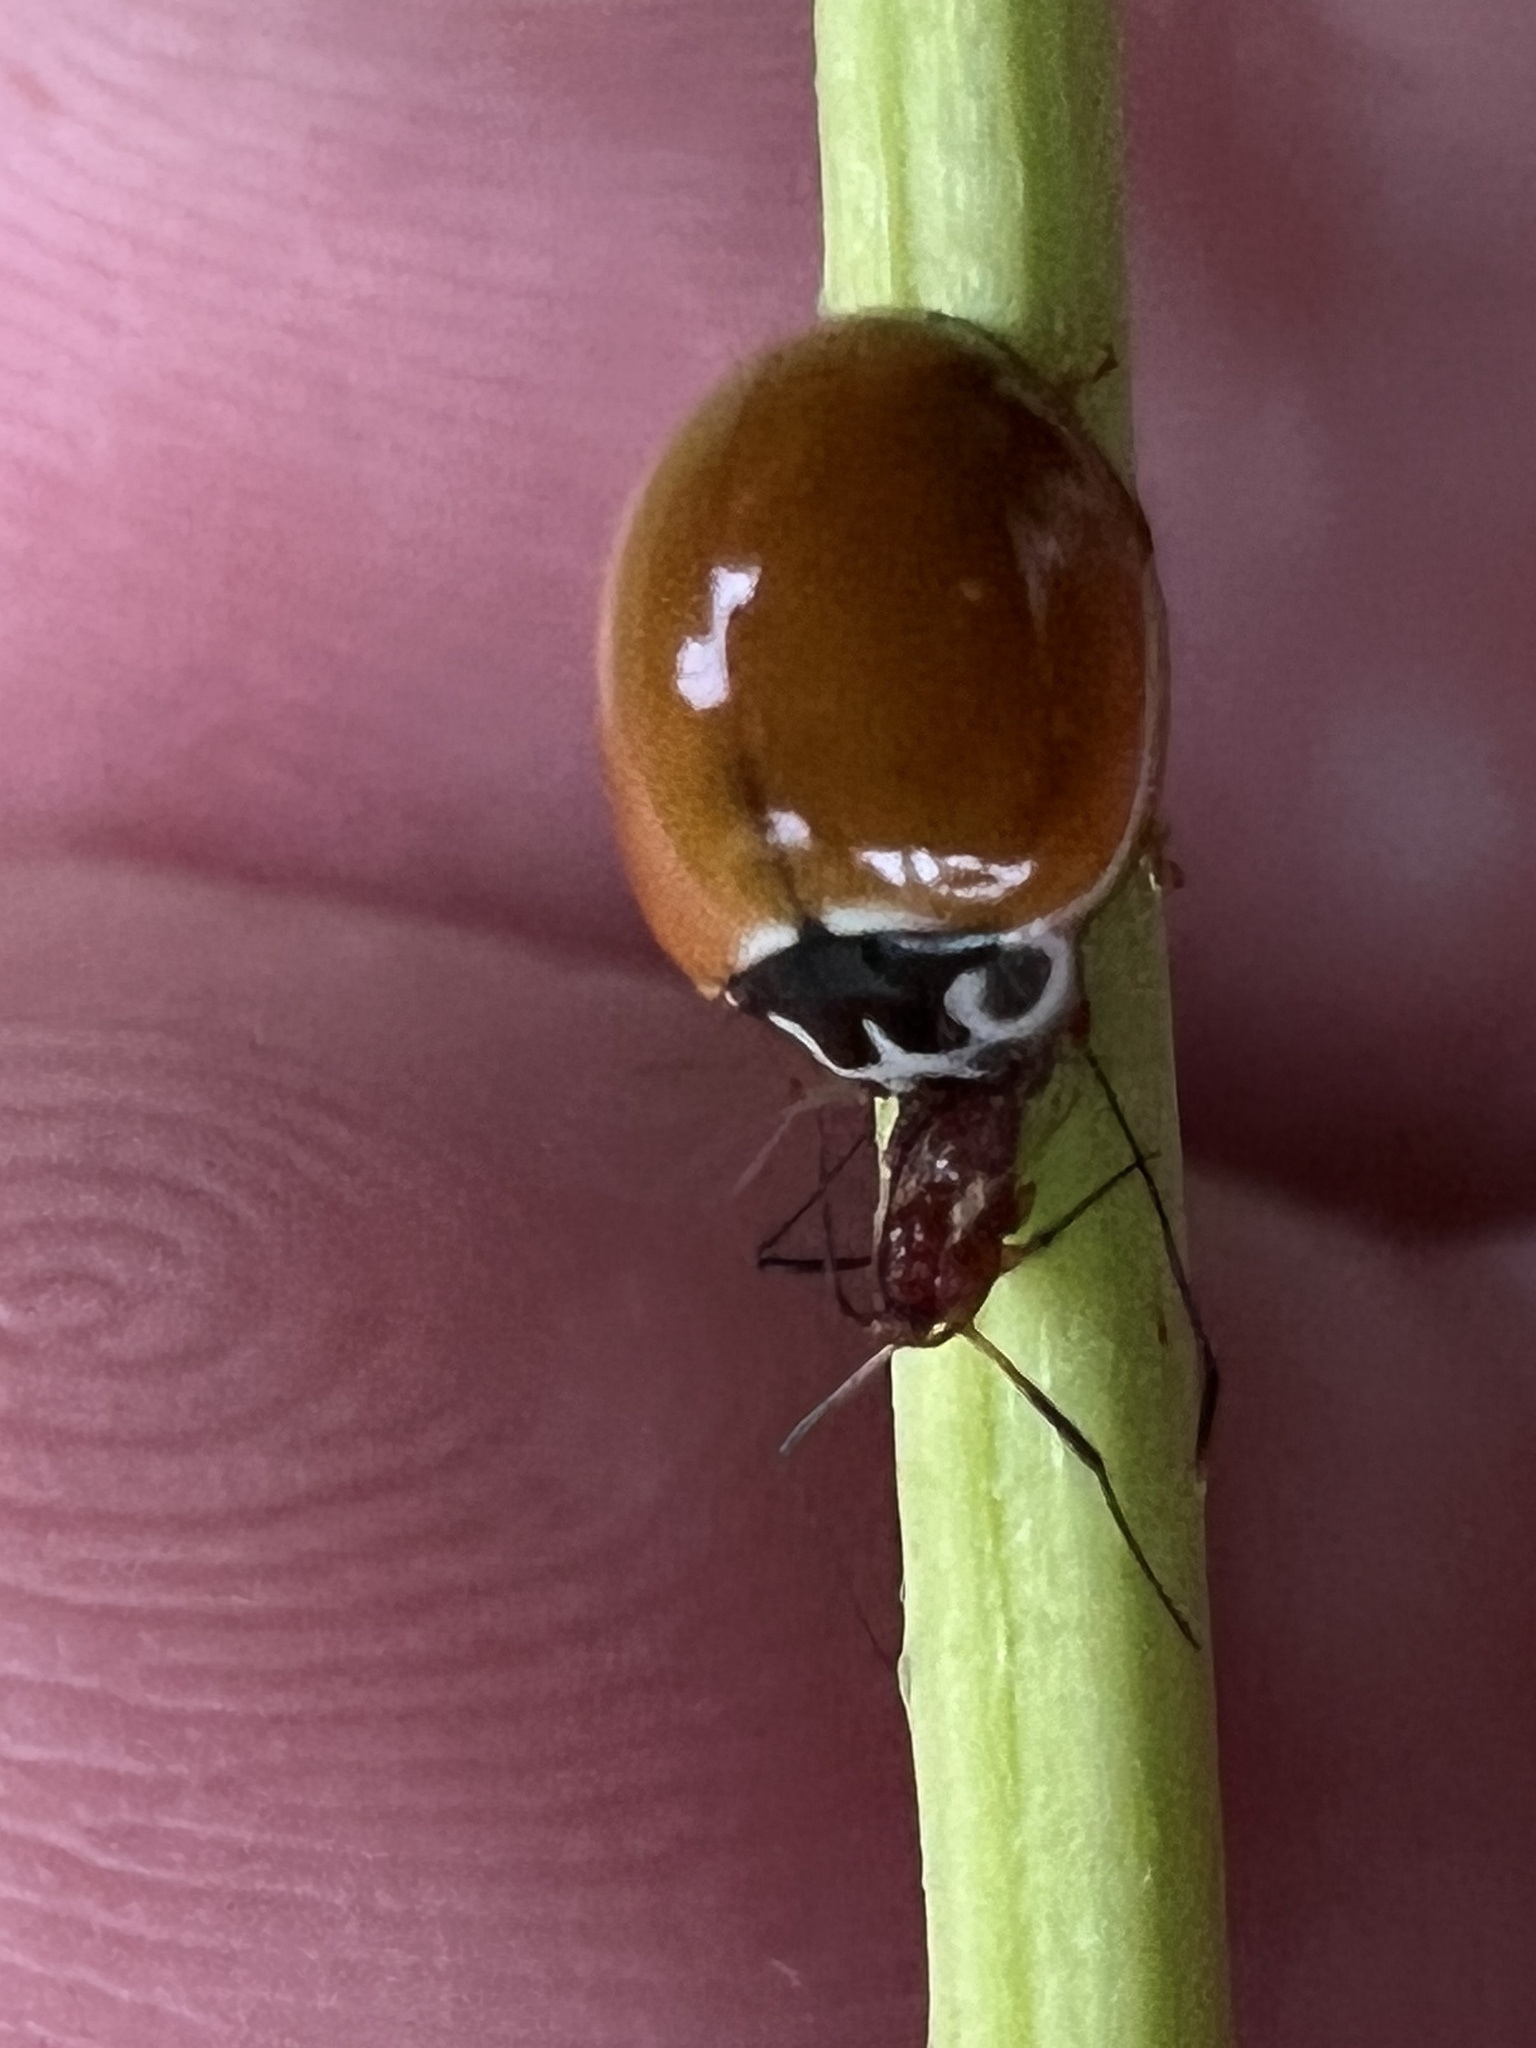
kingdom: Animalia
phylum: Arthropoda
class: Insecta
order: Coleoptera
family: Coccinellidae
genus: Cycloneda
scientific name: Cycloneda munda
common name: Polished lady beetle
